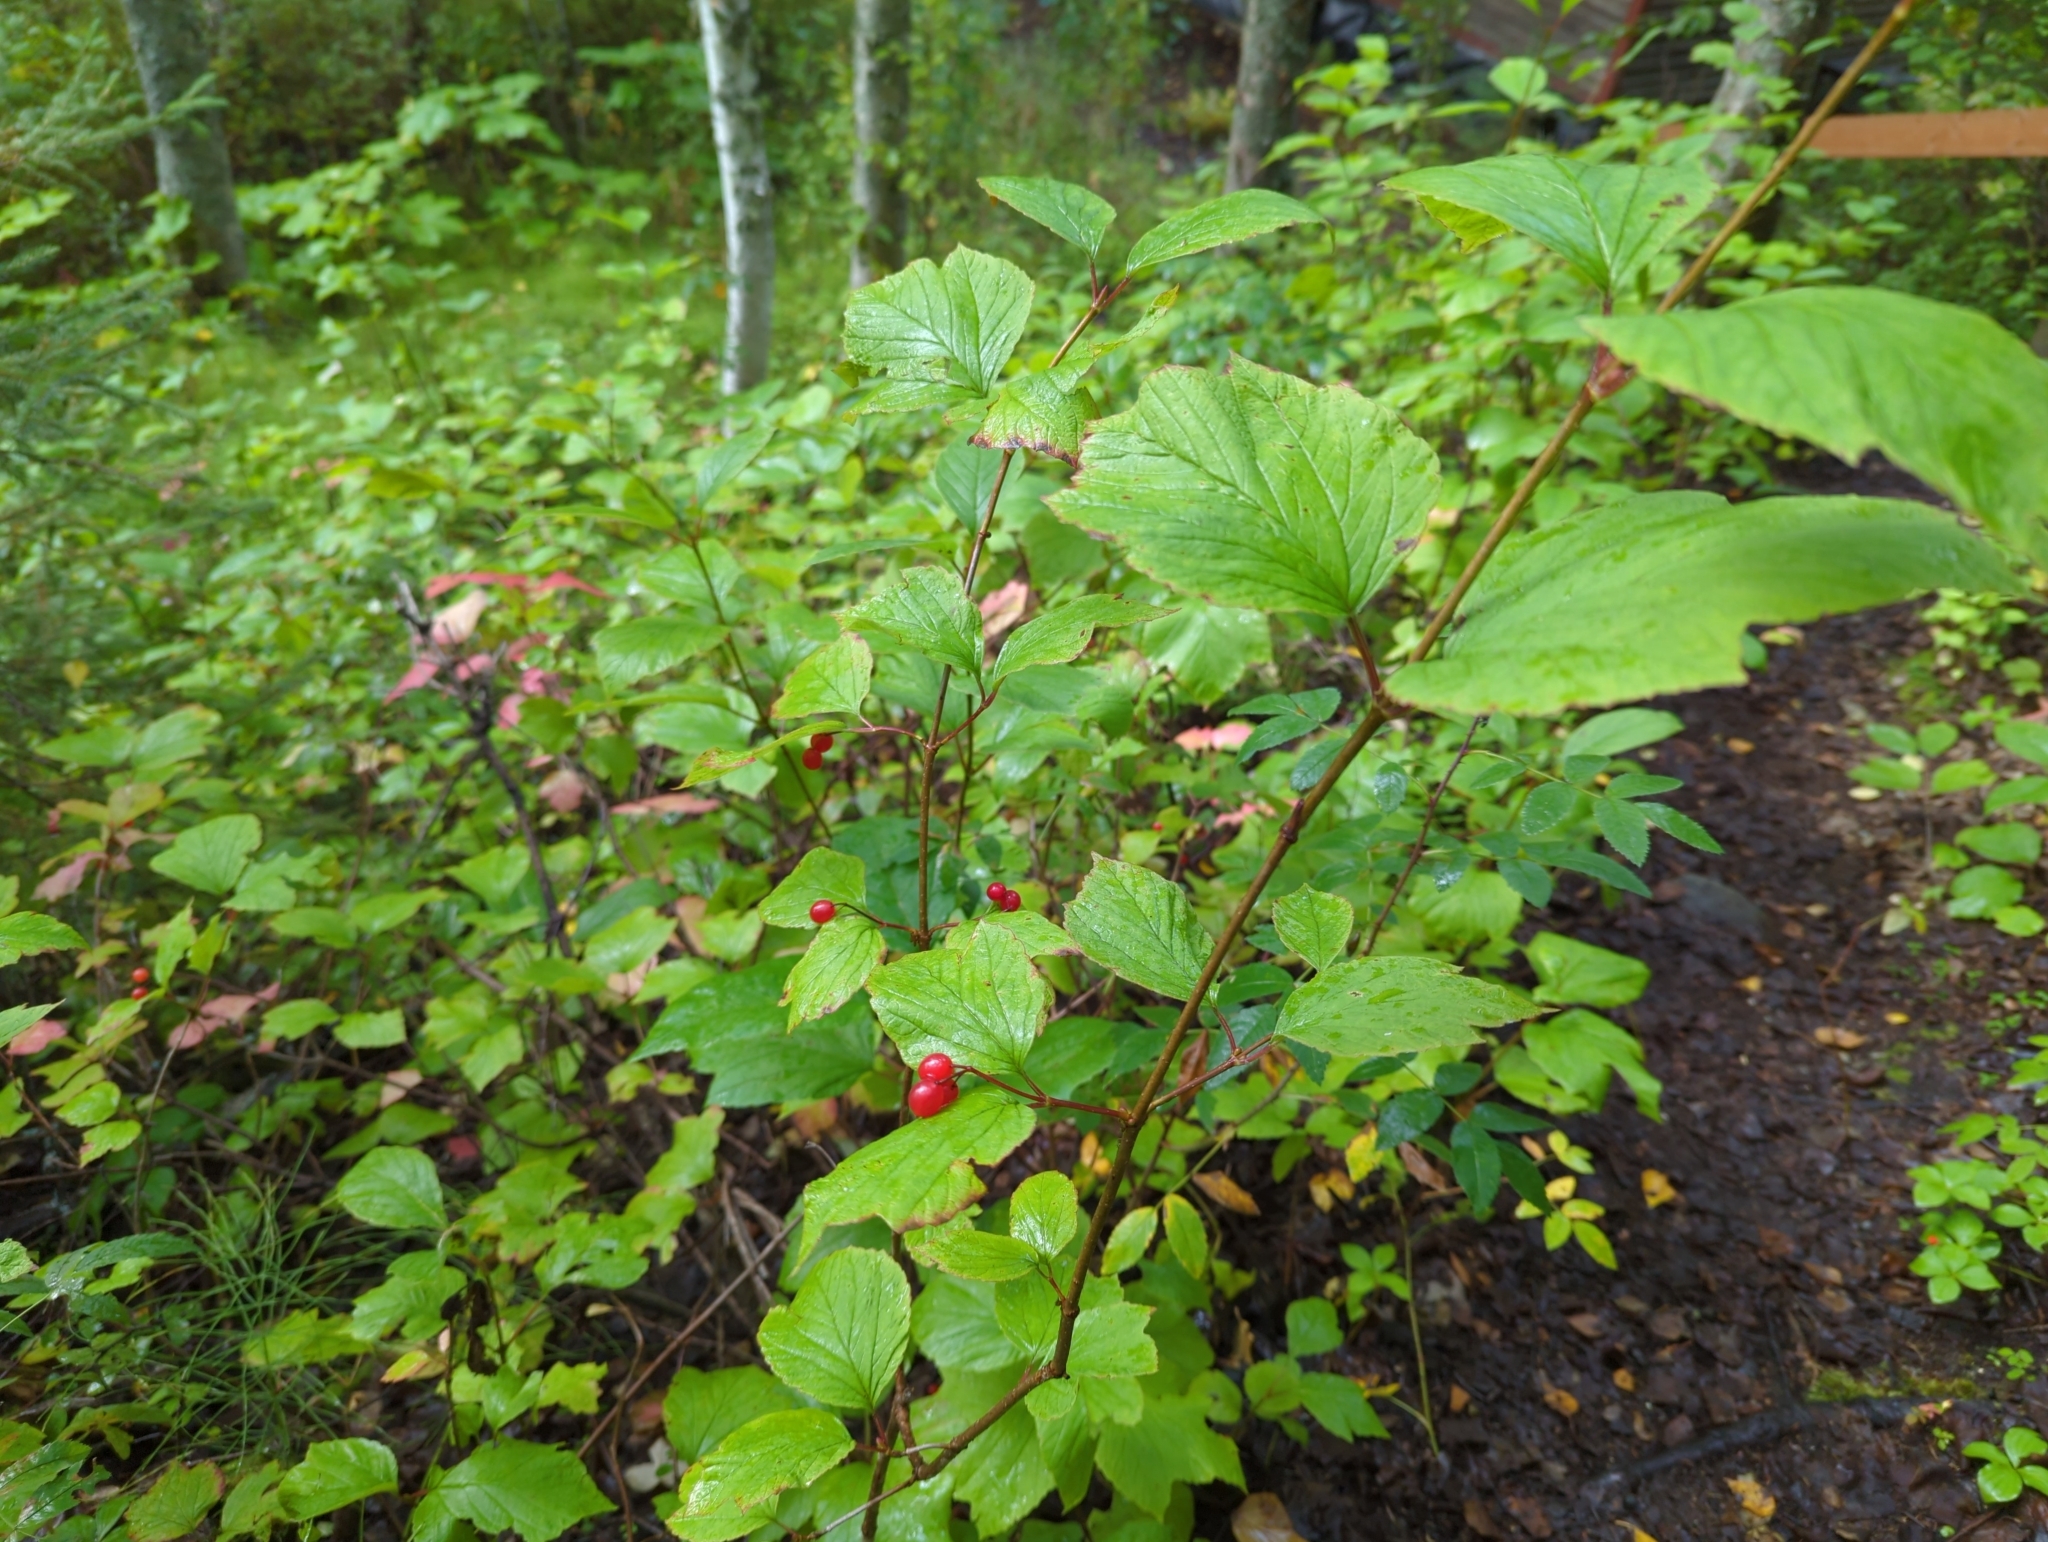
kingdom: Plantae
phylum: Tracheophyta
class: Magnoliopsida
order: Dipsacales
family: Viburnaceae
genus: Viburnum
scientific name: Viburnum edule
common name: Mooseberry
